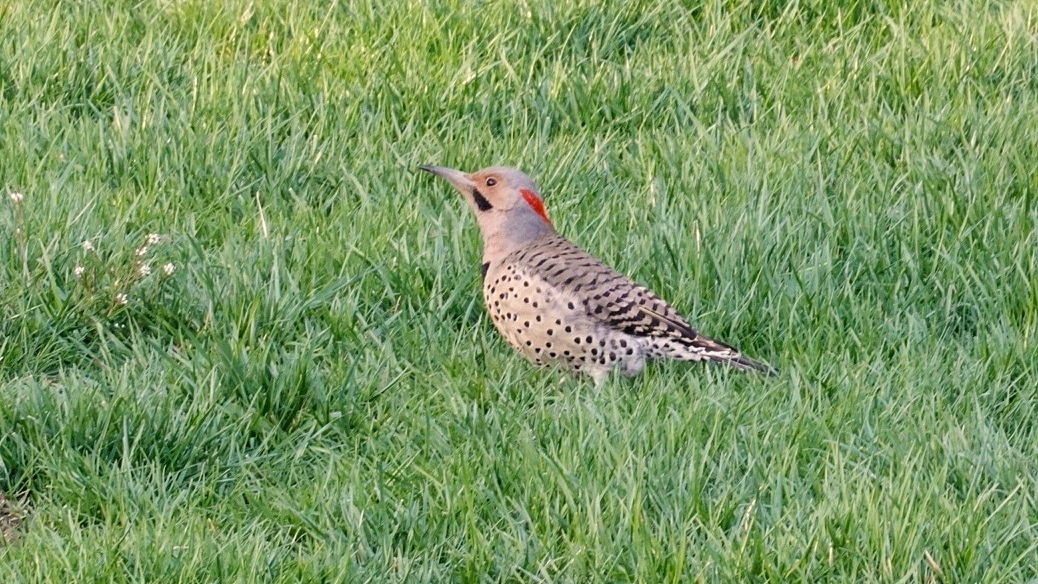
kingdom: Animalia
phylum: Chordata
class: Aves
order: Piciformes
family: Picidae
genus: Colaptes
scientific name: Colaptes auratus
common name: Northern flicker
